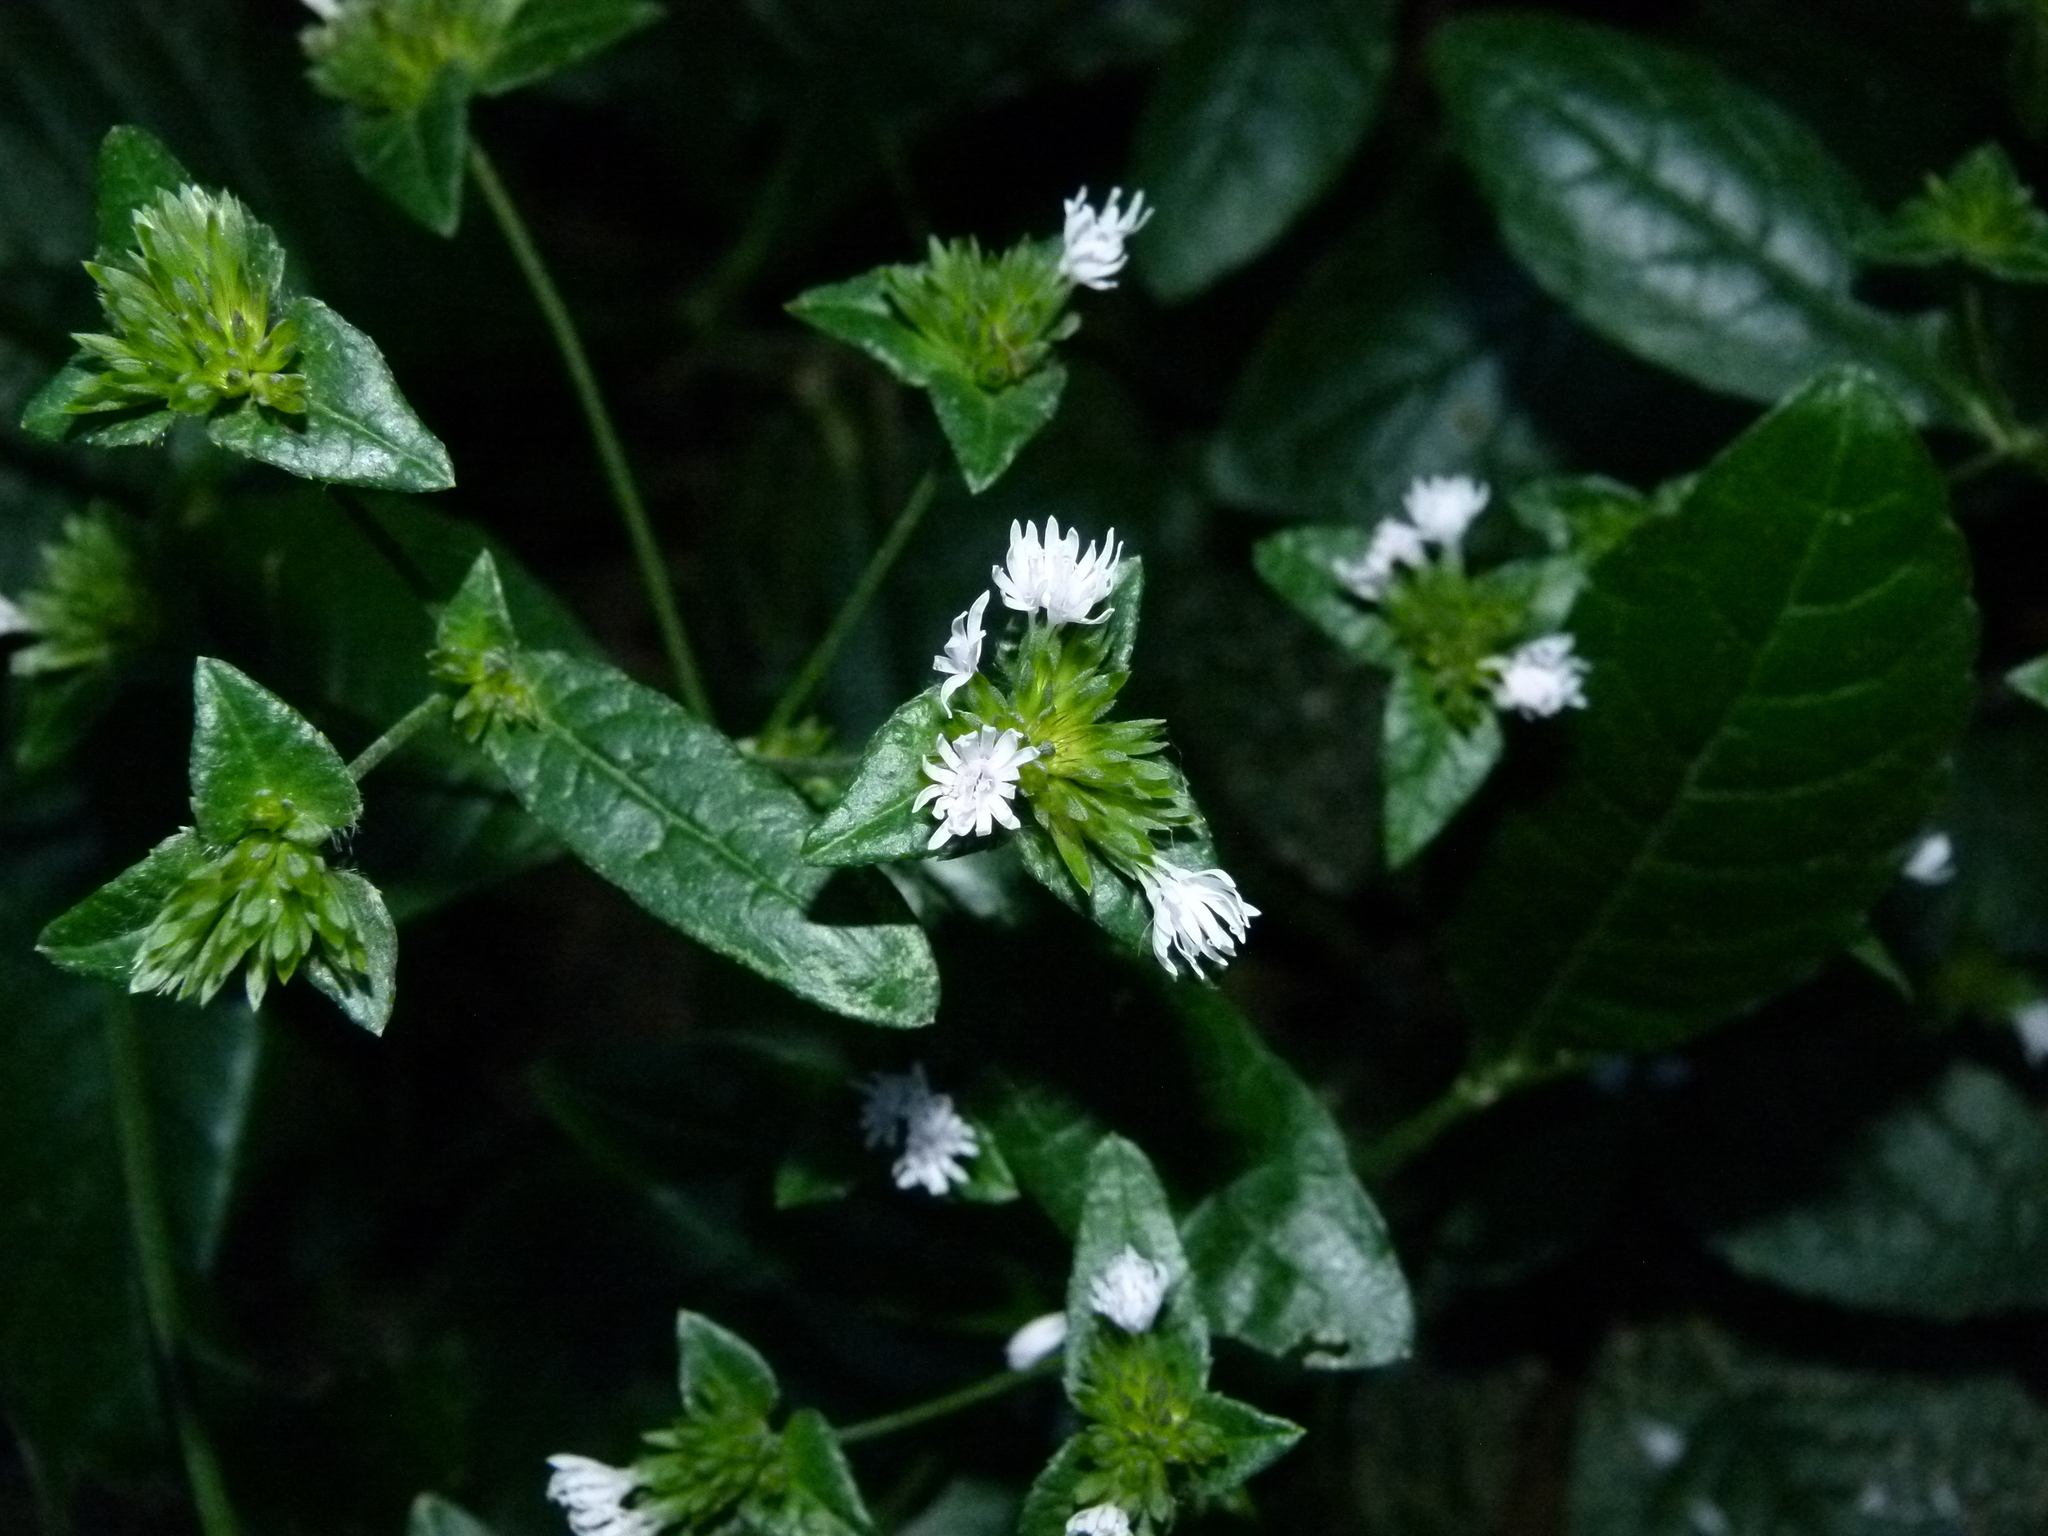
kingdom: Plantae
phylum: Tracheophyta
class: Magnoliopsida
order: Asterales
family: Asteraceae
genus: Elephantopus
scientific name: Elephantopus carolinianus
